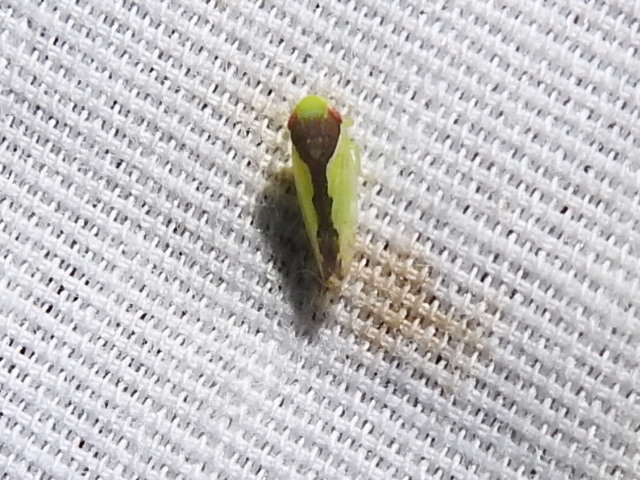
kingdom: Animalia
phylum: Arthropoda
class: Insecta
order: Hemiptera
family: Cicadellidae
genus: Omansobara ing
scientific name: Omansobara ing Omansobara palliolata
